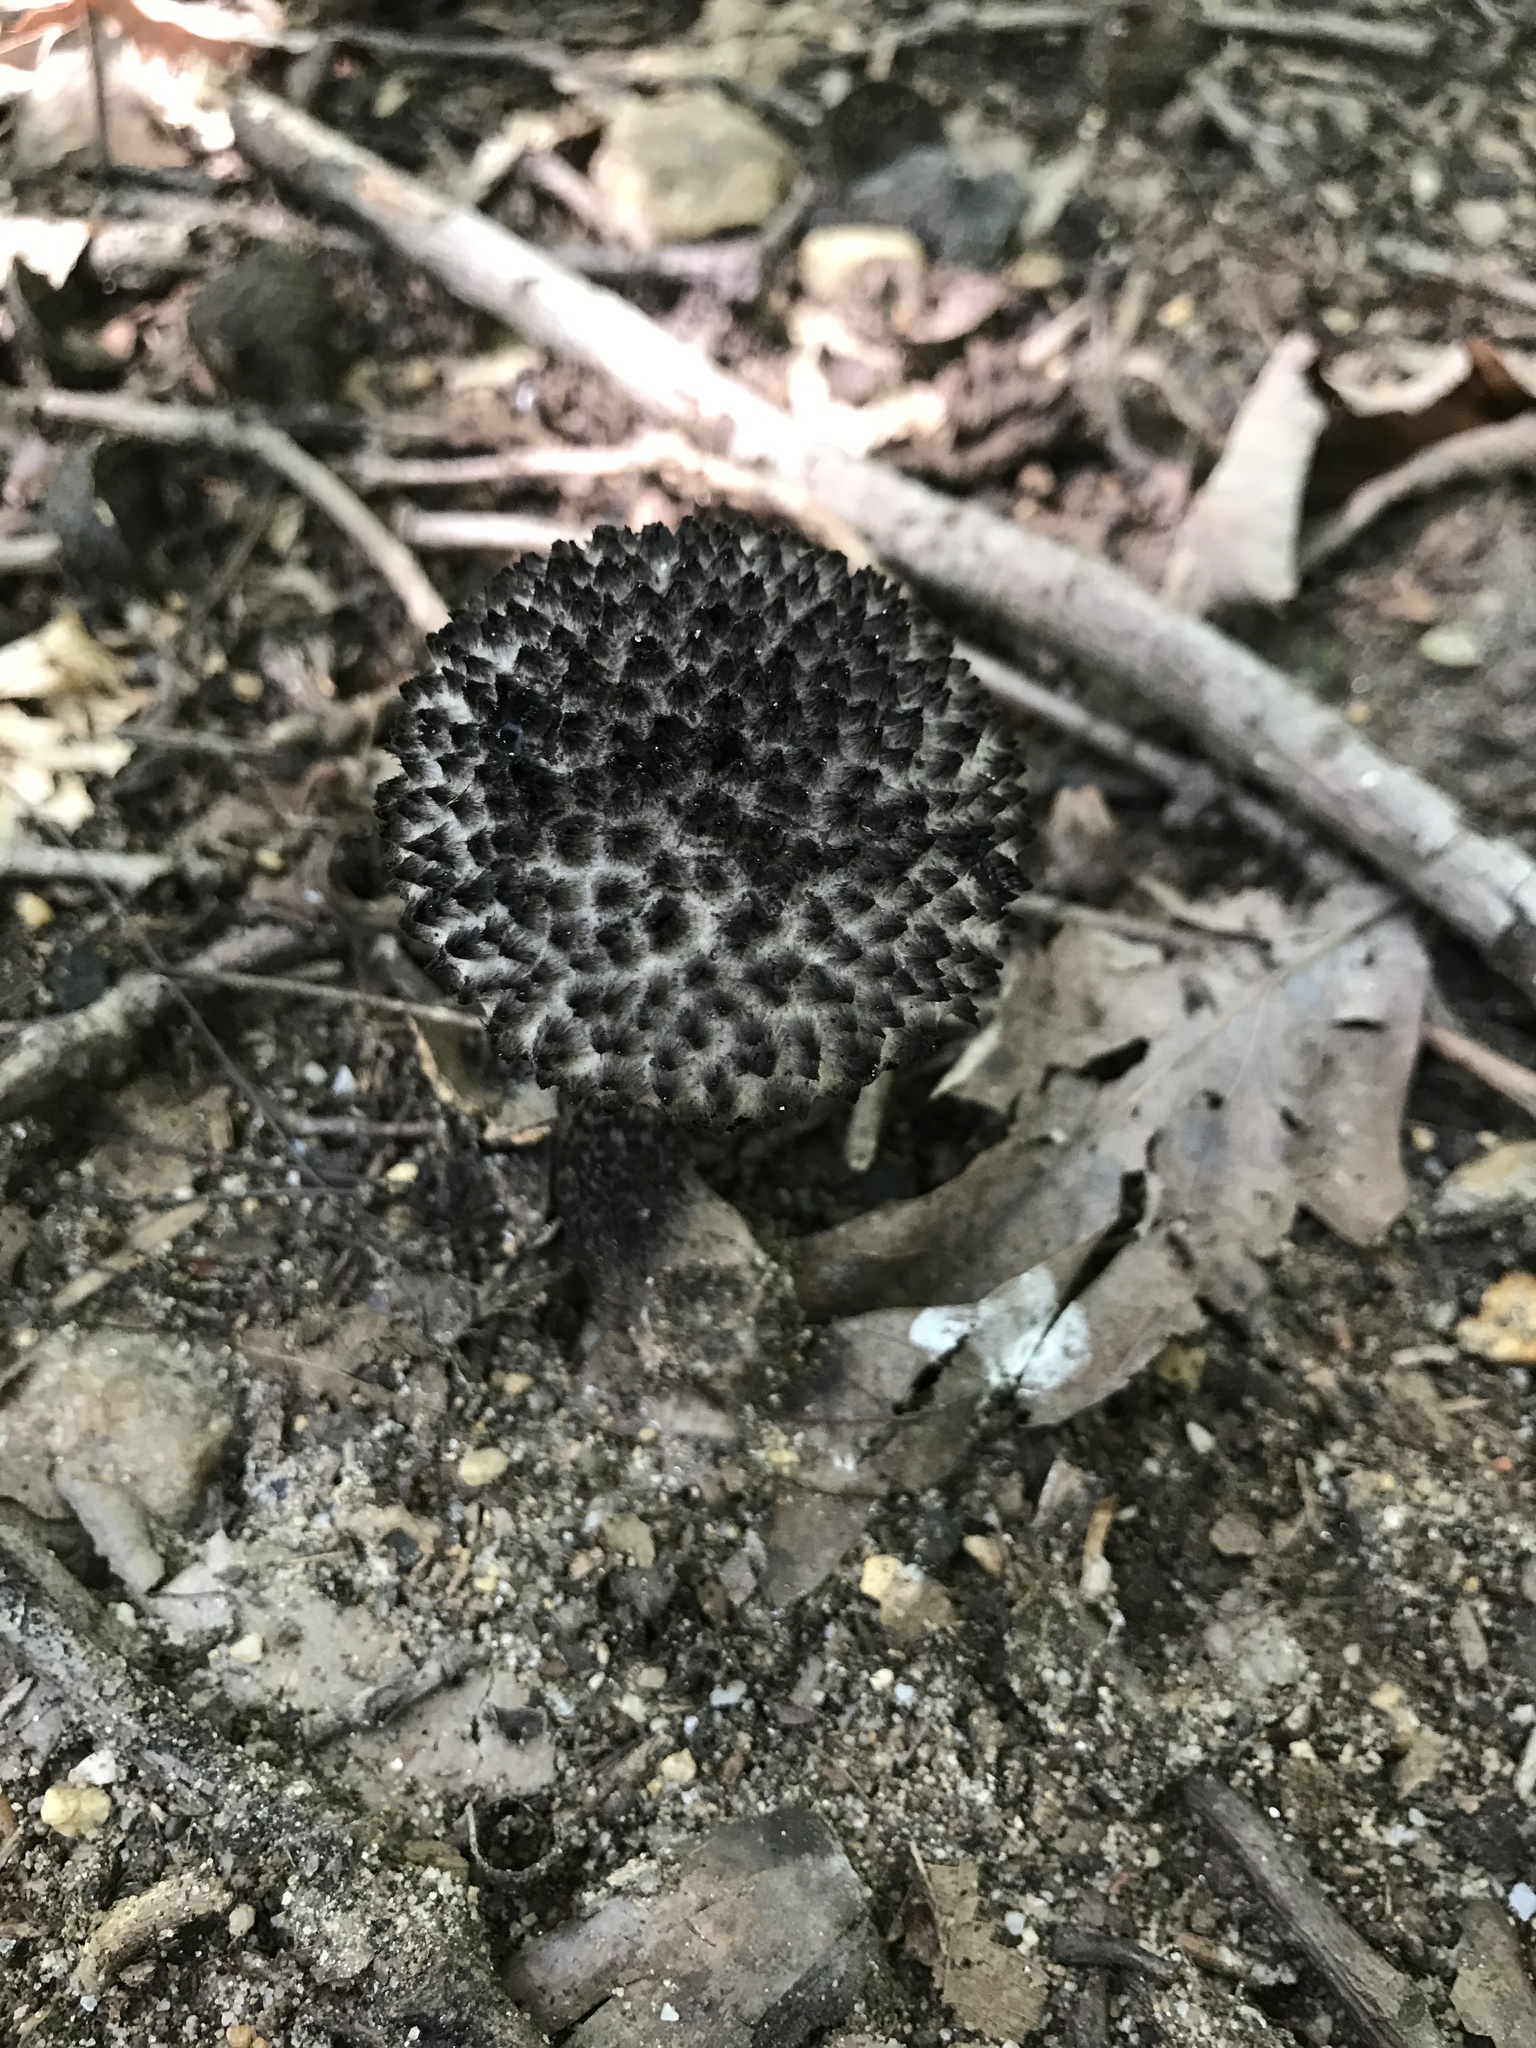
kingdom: Fungi
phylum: Basidiomycota
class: Agaricomycetes
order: Boletales
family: Boletaceae
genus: Strobilomyces
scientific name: Strobilomyces strobilaceus
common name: Old man of the woods
